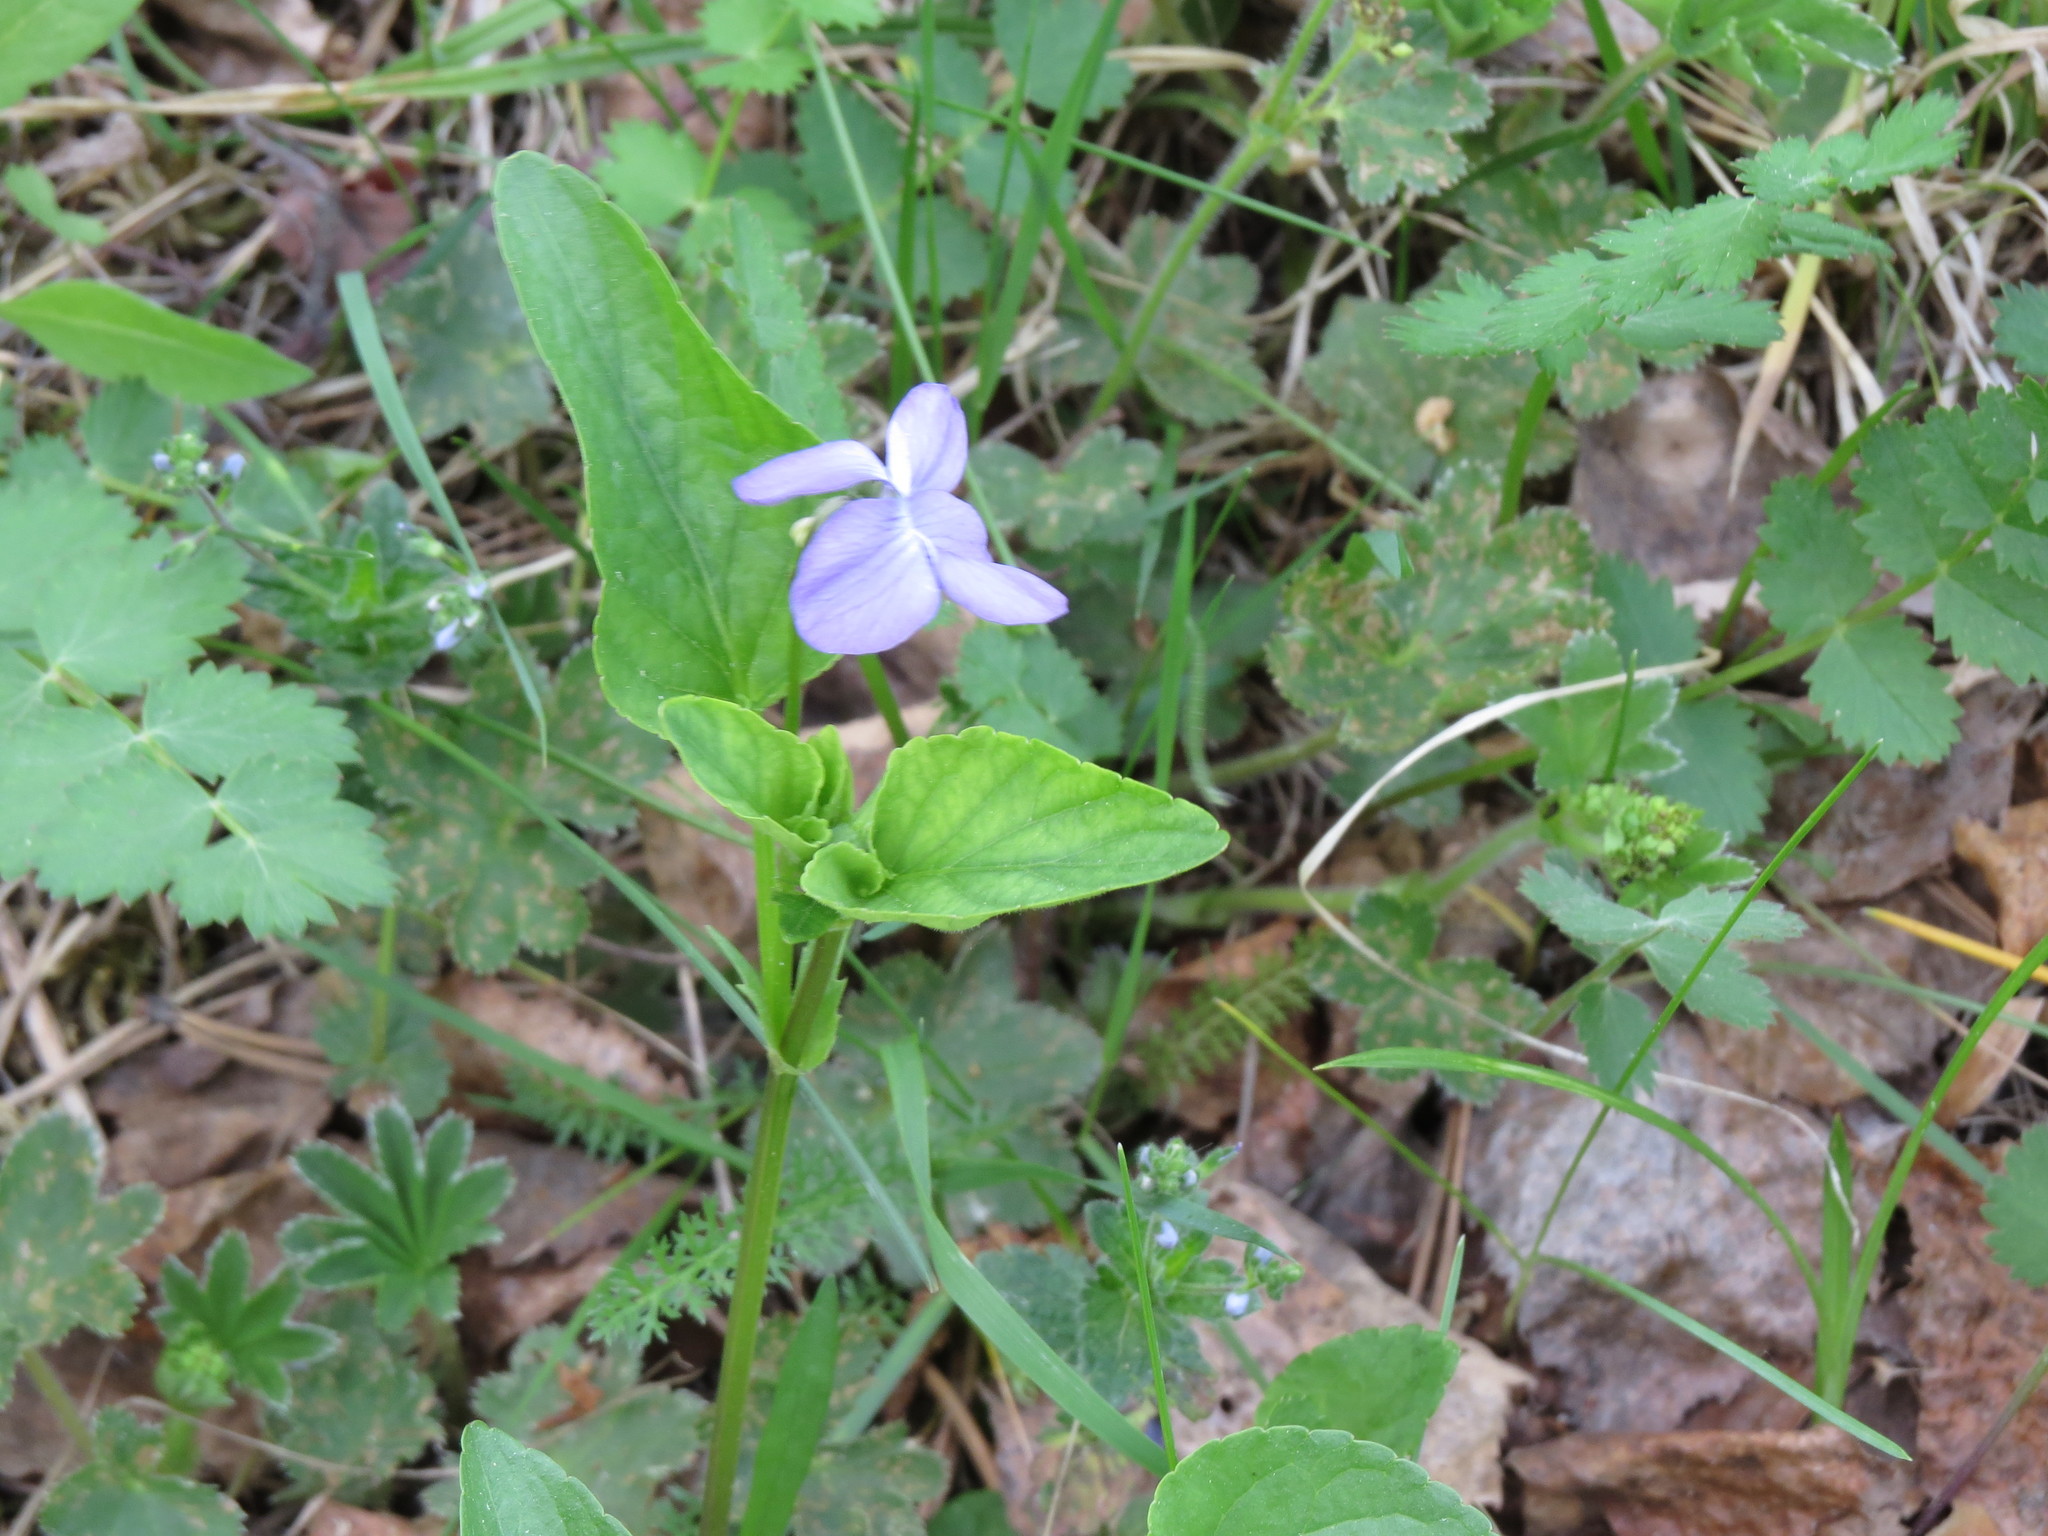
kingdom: Plantae
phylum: Tracheophyta
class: Magnoliopsida
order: Malpighiales
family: Violaceae
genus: Viola
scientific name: Viola
